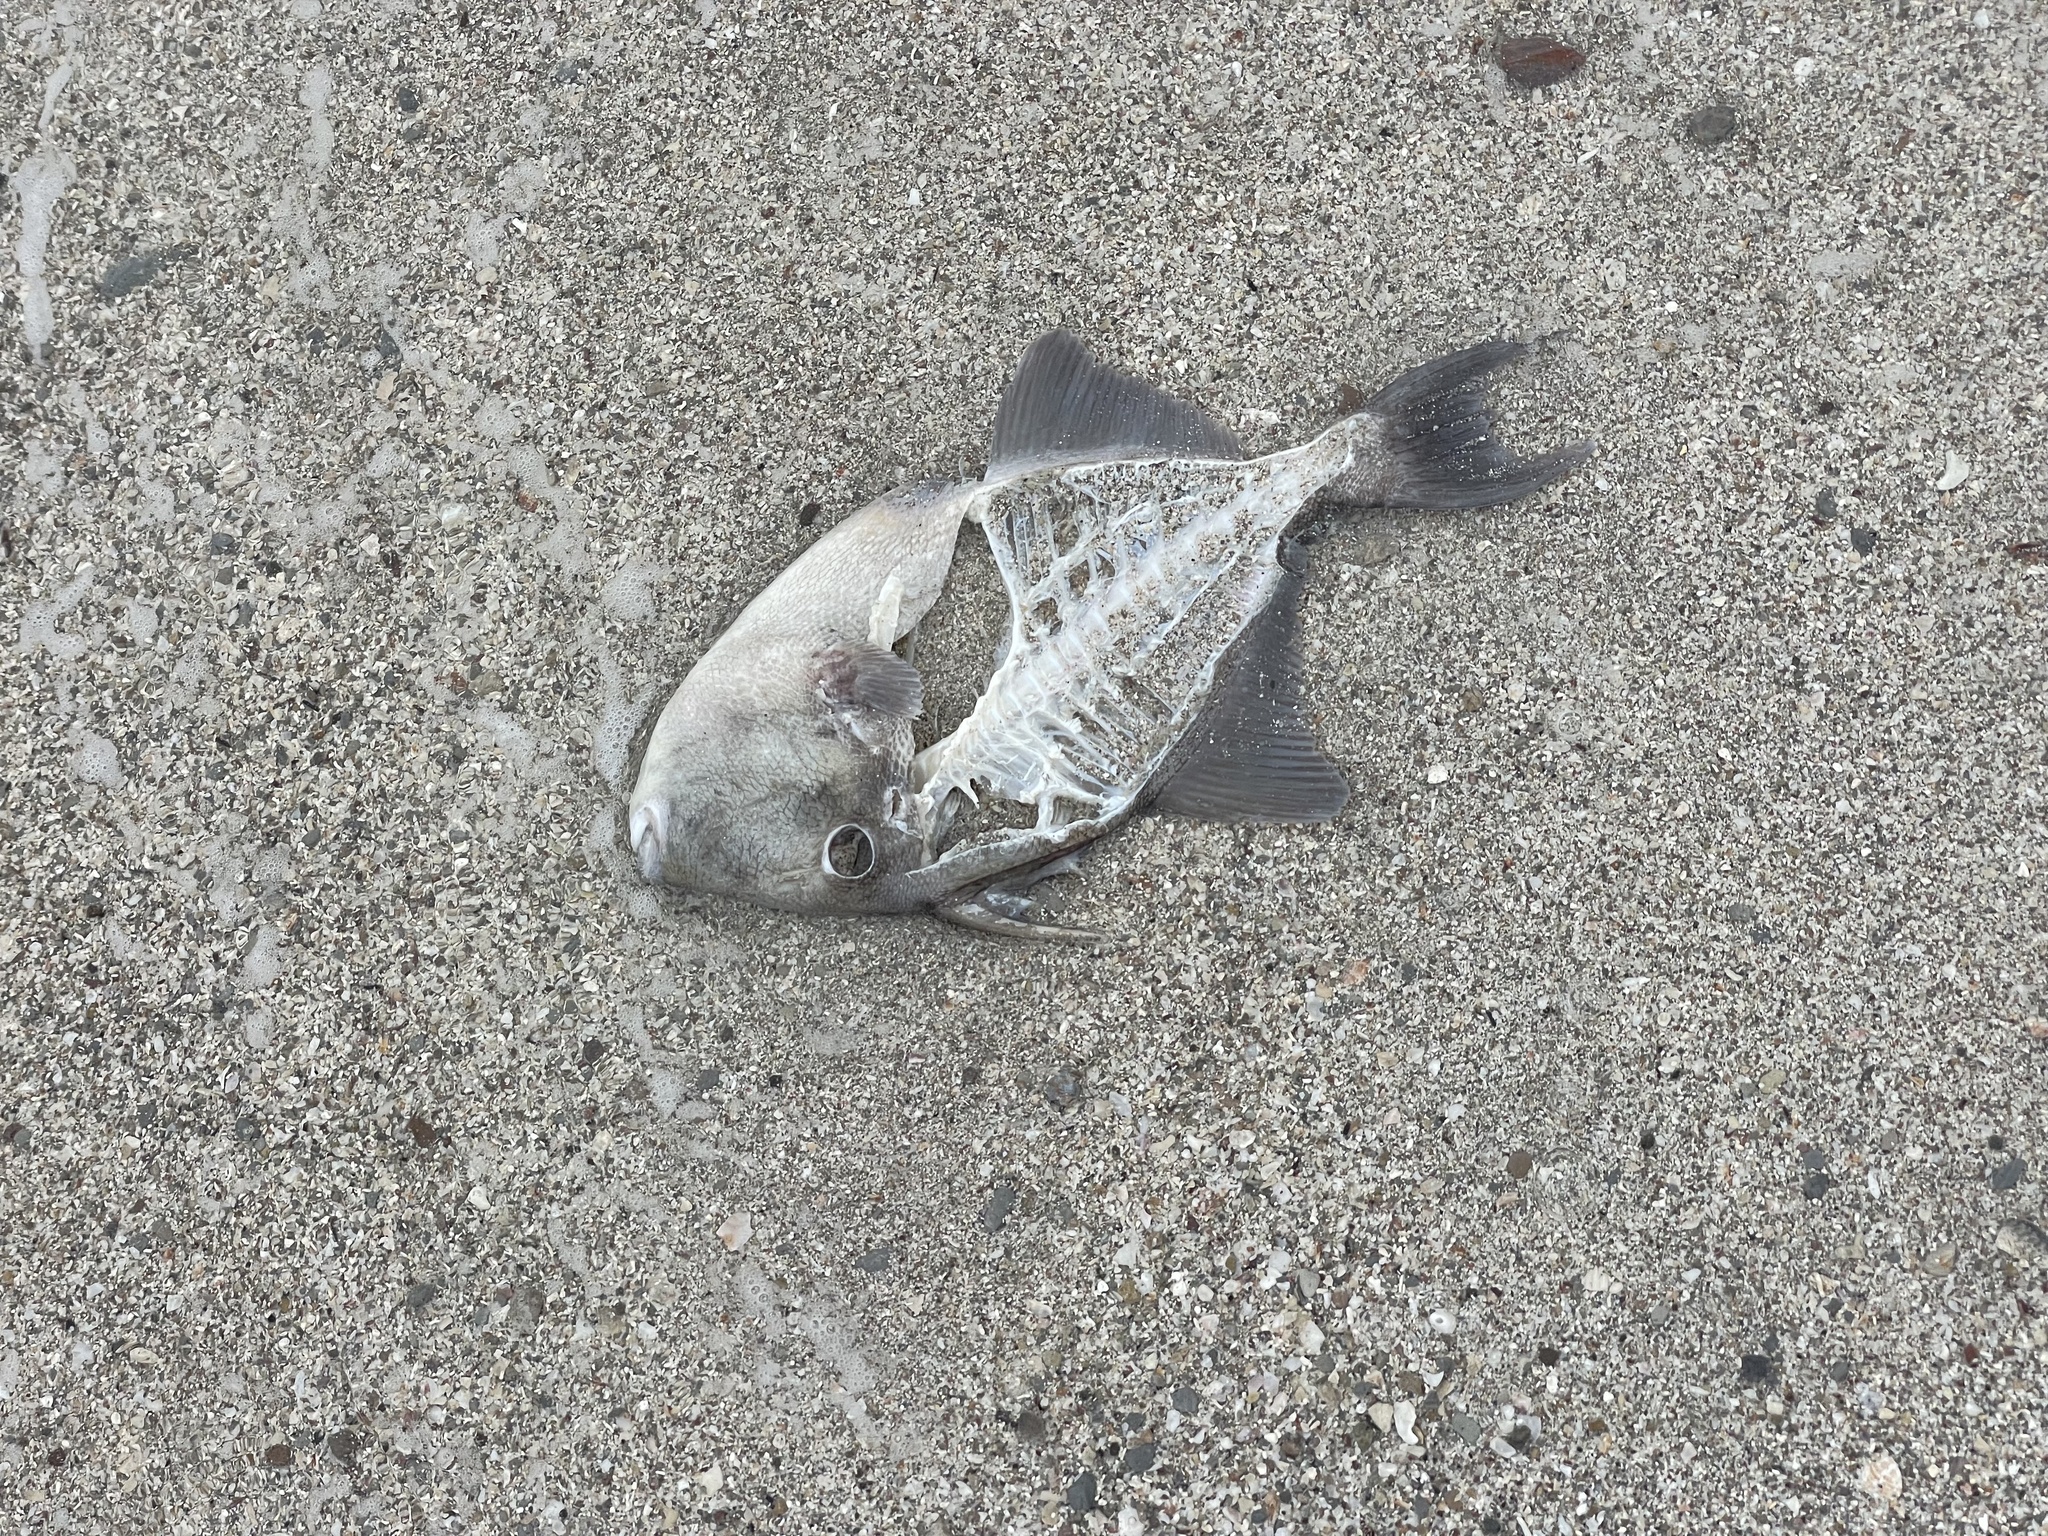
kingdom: Animalia
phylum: Chordata
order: Tetraodontiformes
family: Balistidae
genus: Balistes
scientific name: Balistes polylepis
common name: Finescale triggerfish
